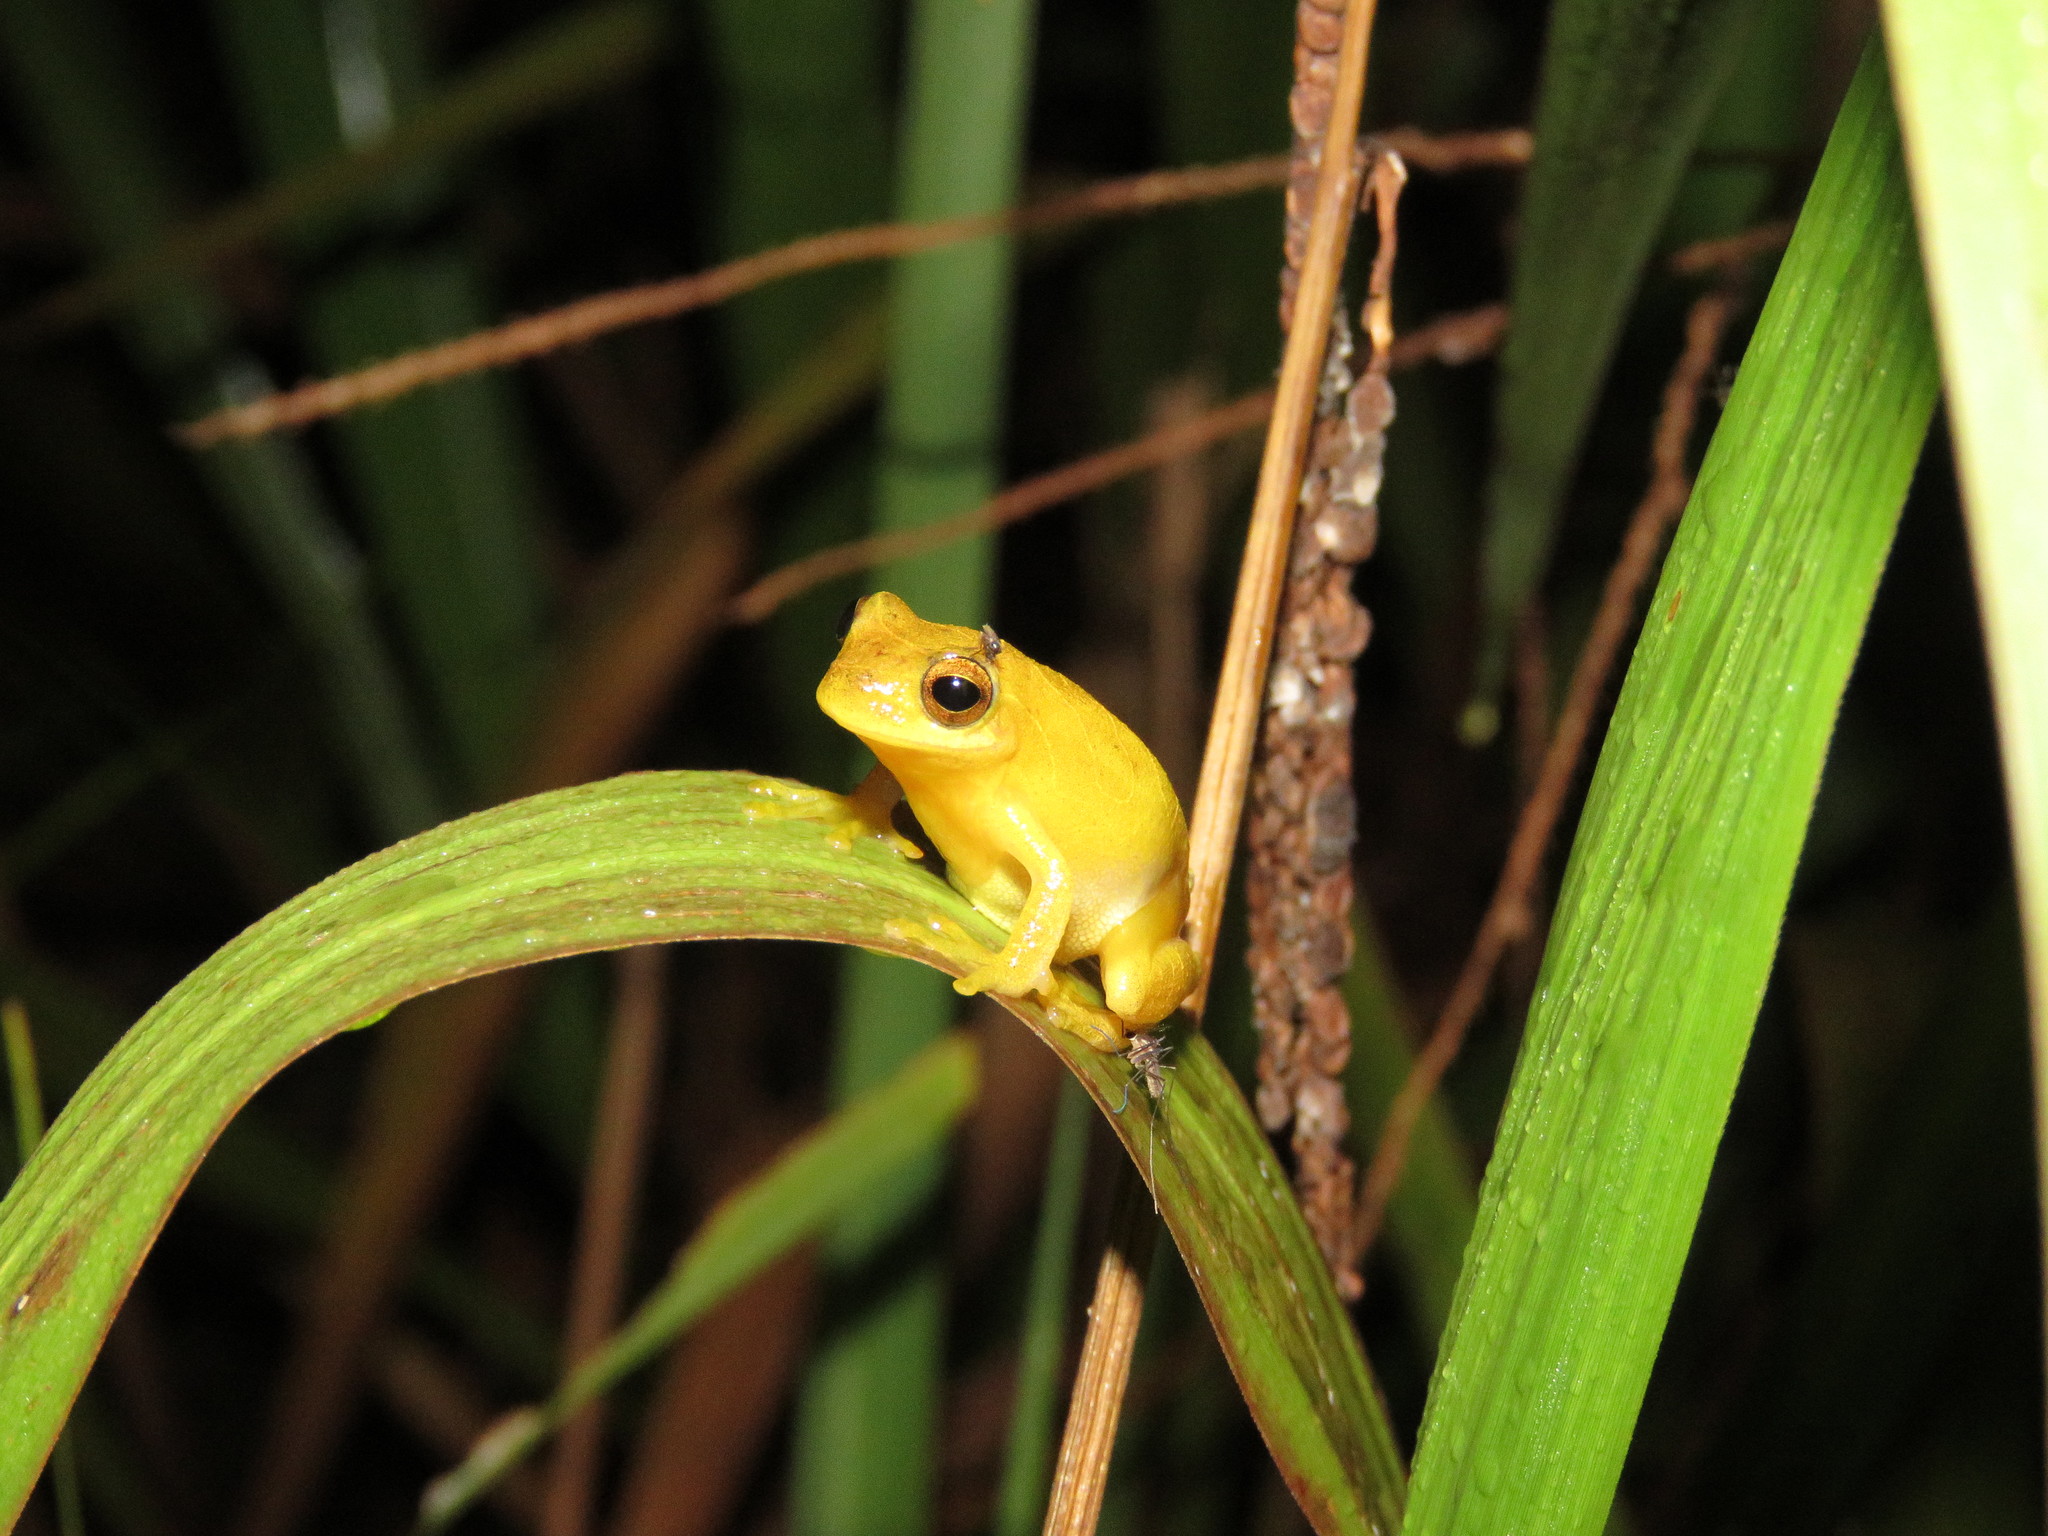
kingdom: Animalia
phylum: Chordata
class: Amphibia
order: Anura
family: Hylidae
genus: Dendropsophus
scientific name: Dendropsophus minutus
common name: Lesser treefrog
